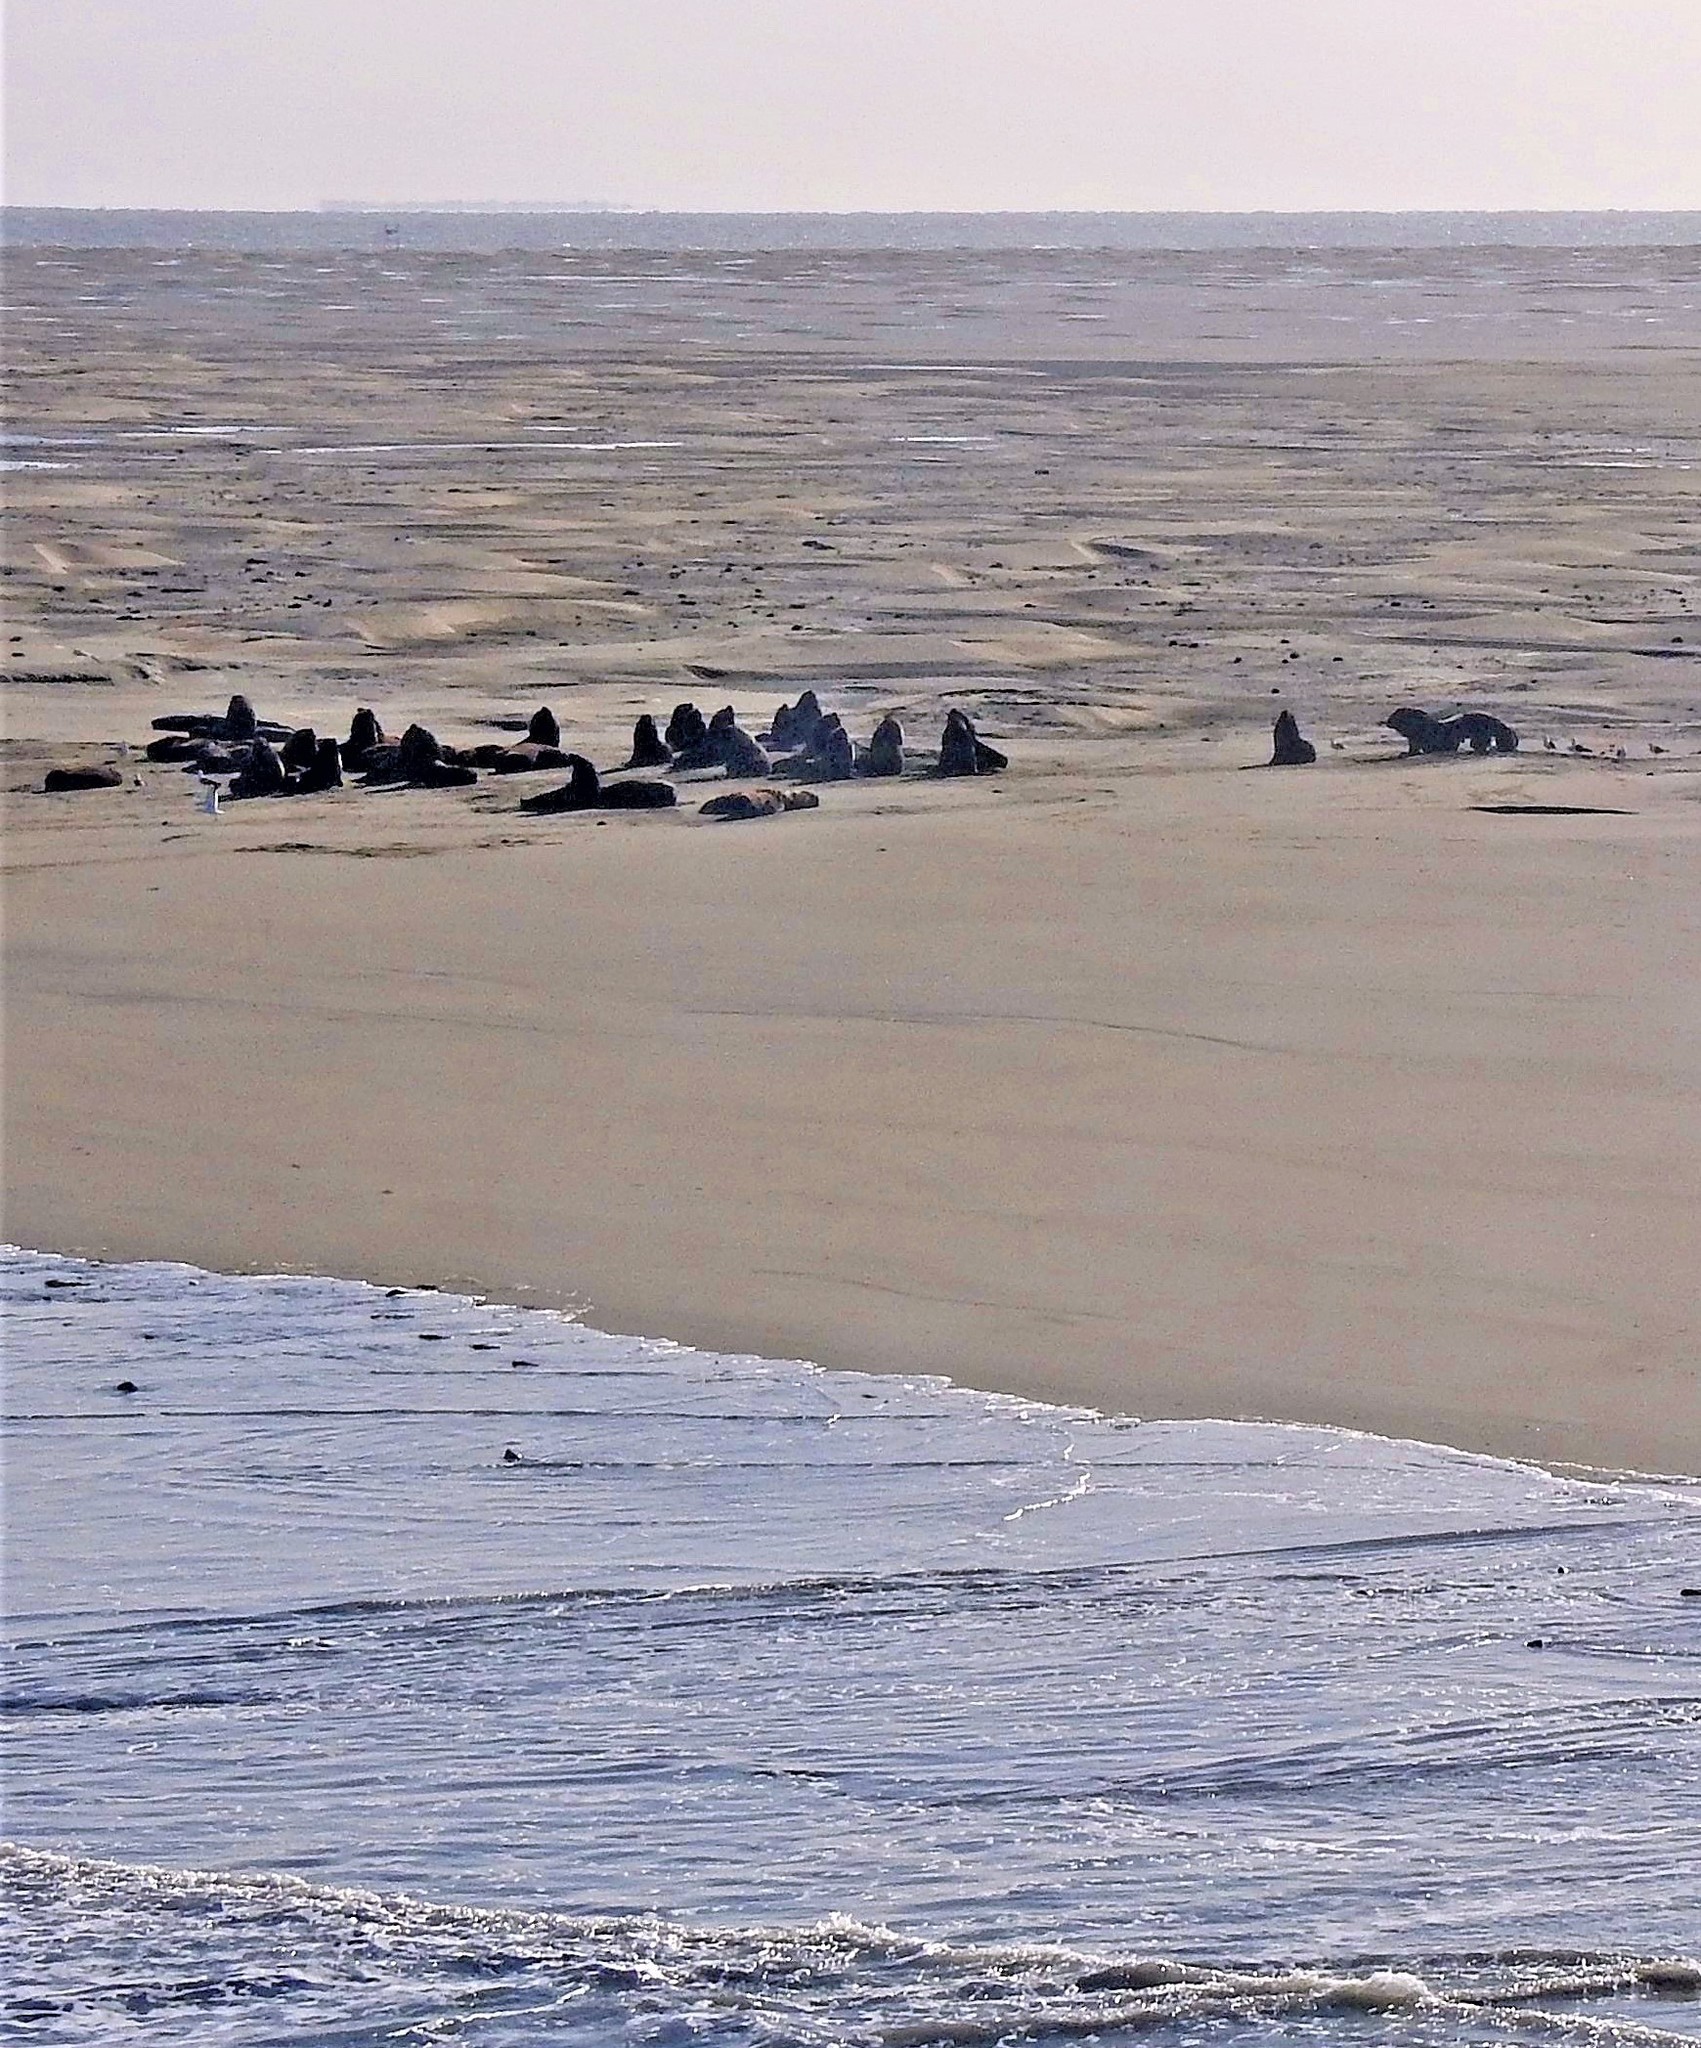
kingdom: Animalia
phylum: Chordata
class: Mammalia
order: Carnivora
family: Otariidae
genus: Otaria
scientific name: Otaria byronia
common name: South american sea lion
